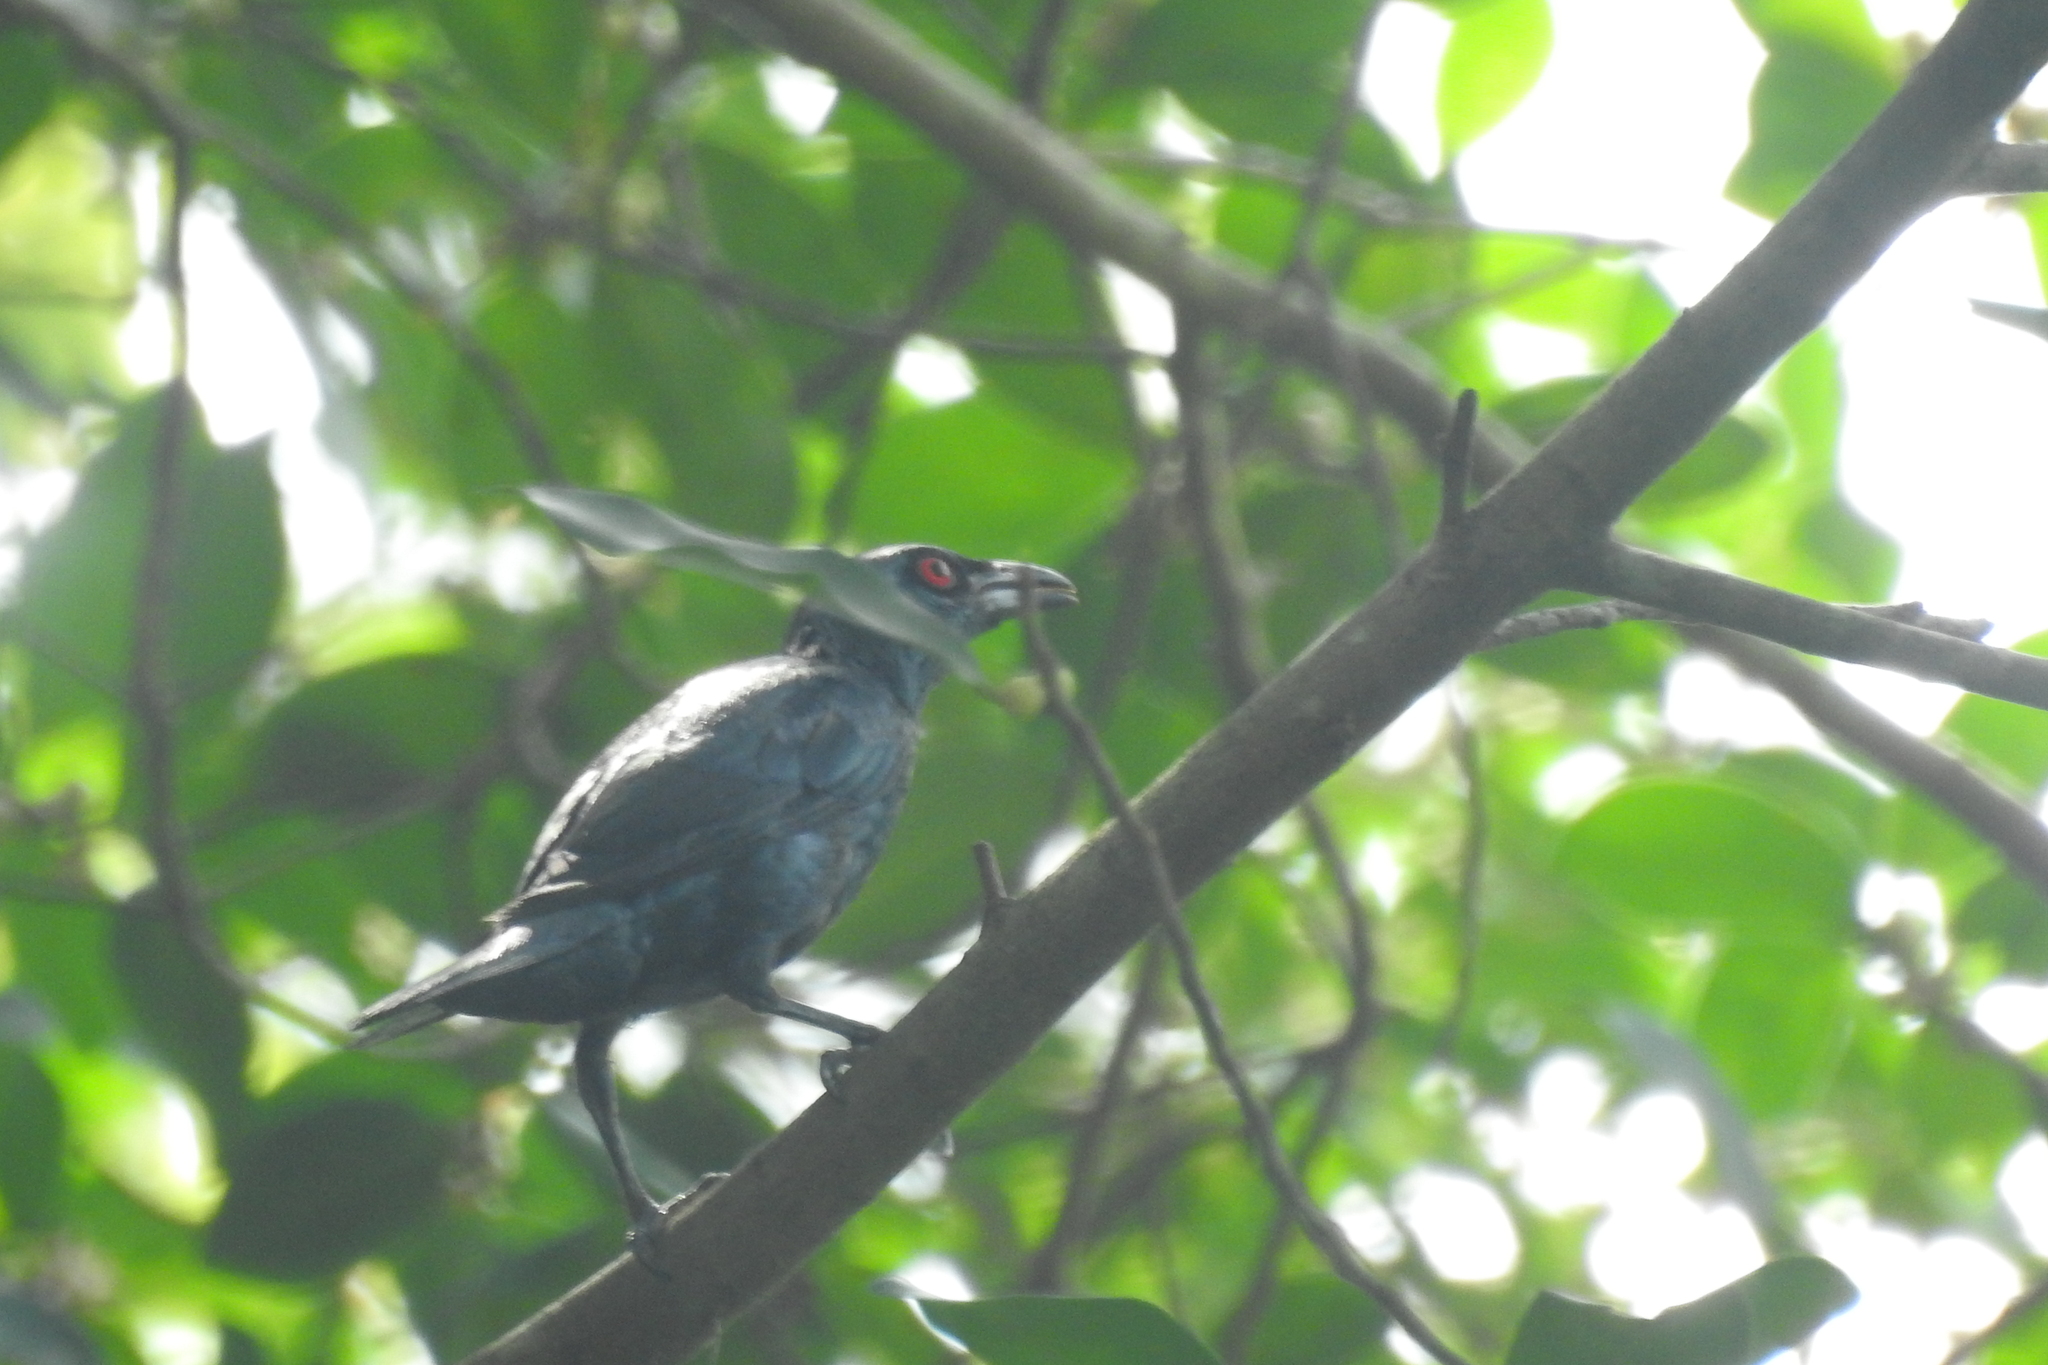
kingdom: Animalia
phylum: Chordata
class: Aves
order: Passeriformes
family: Sturnidae
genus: Aplonis
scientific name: Aplonis panayensis
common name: Asian glossy starling
